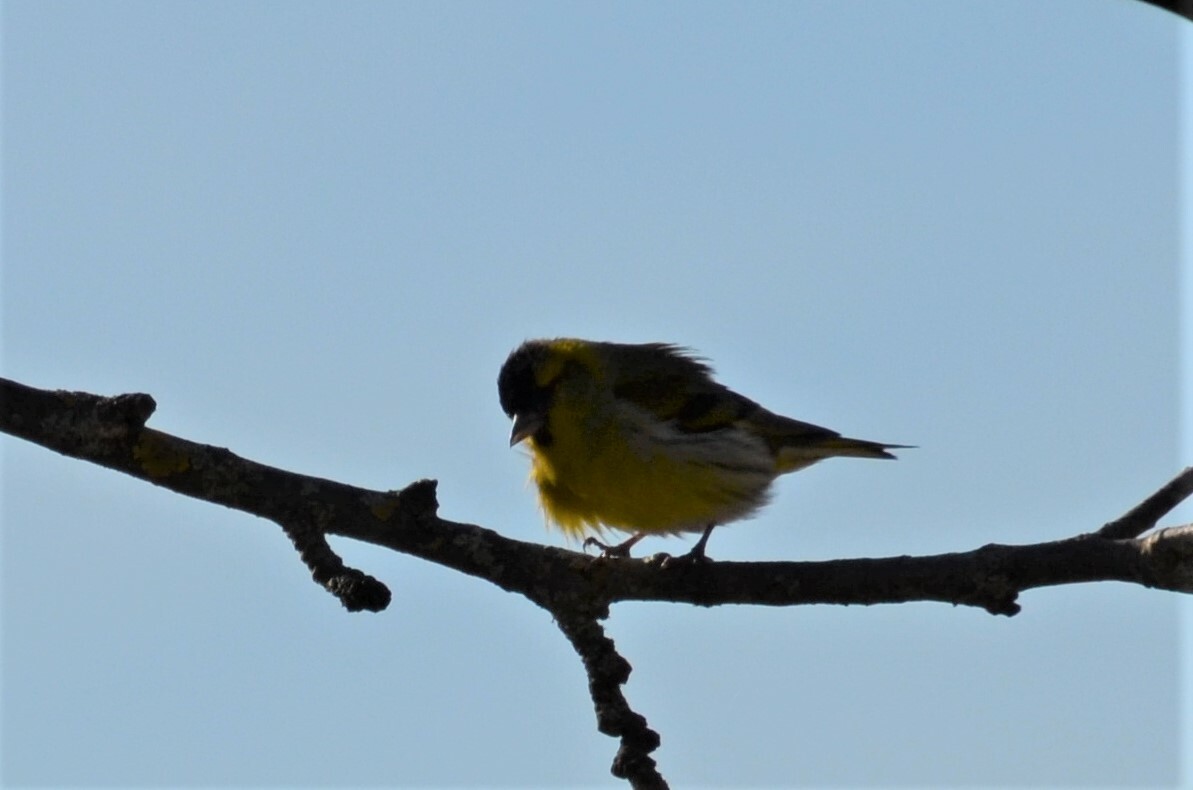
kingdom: Animalia
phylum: Chordata
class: Aves
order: Passeriformes
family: Fringillidae
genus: Spinus
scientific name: Spinus spinus
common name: Eurasian siskin
